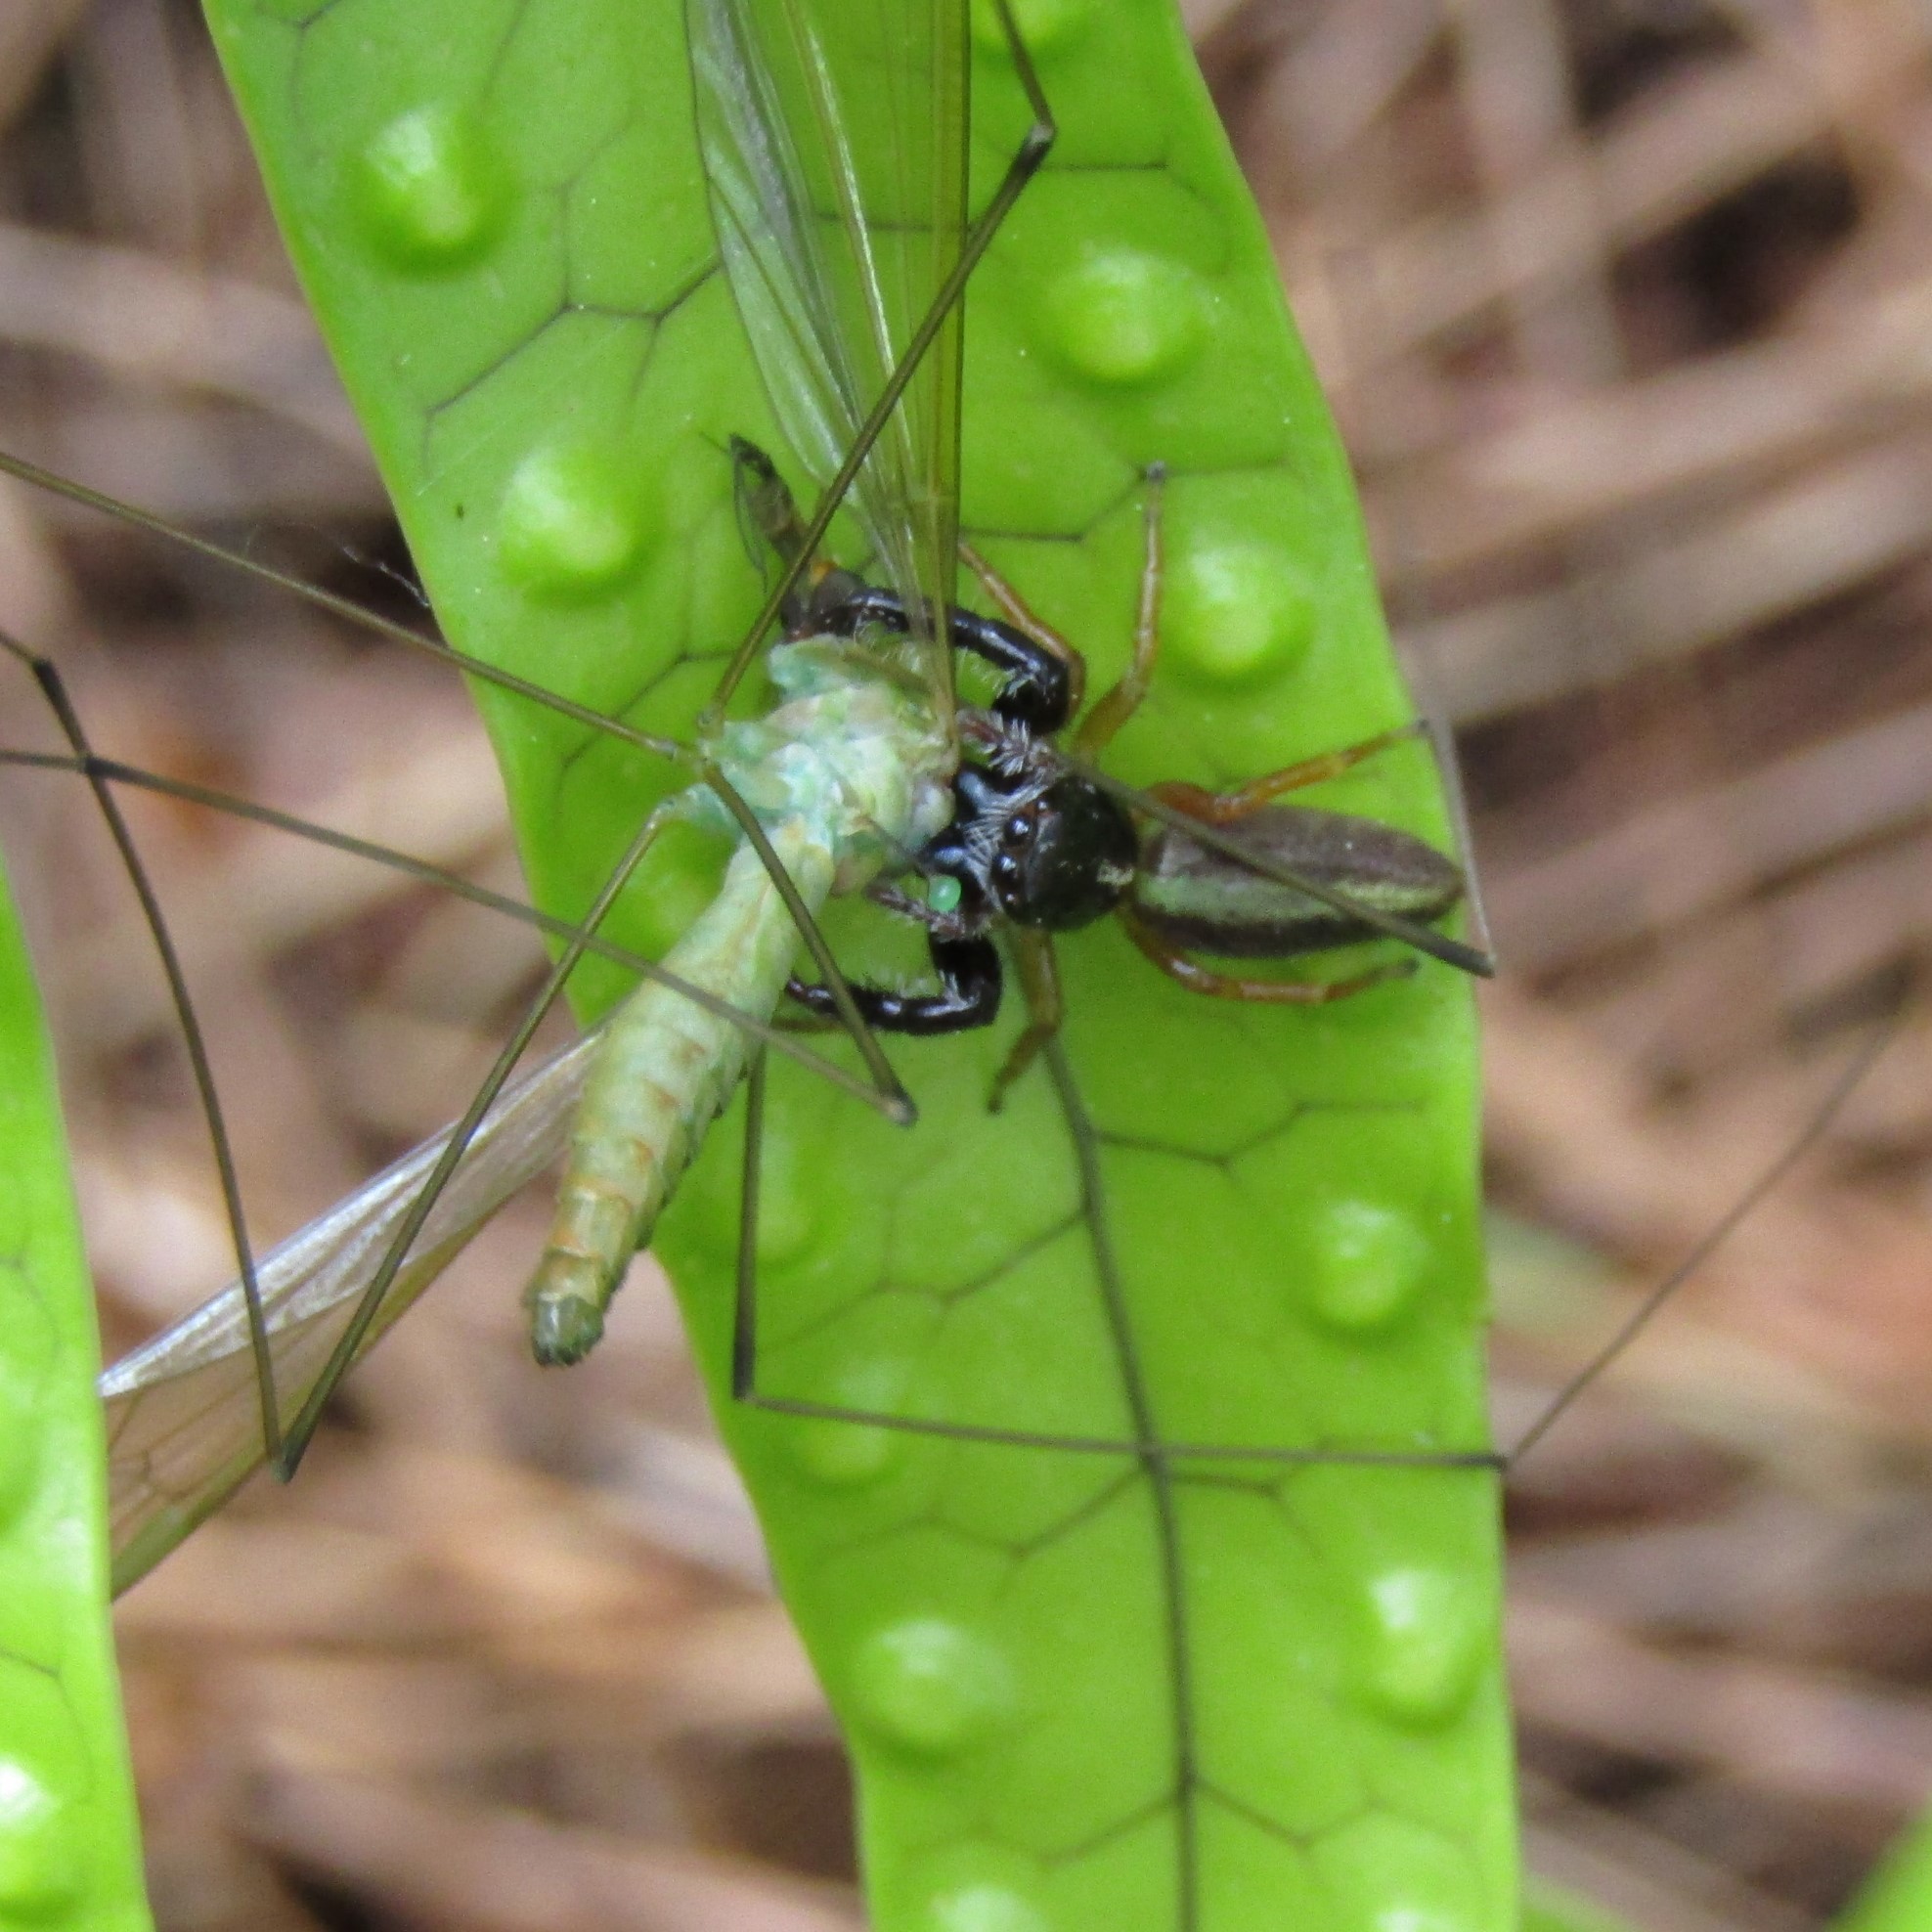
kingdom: Animalia
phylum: Arthropoda
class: Arachnida
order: Araneae
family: Salticidae
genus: Trite
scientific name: Trite planiceps
